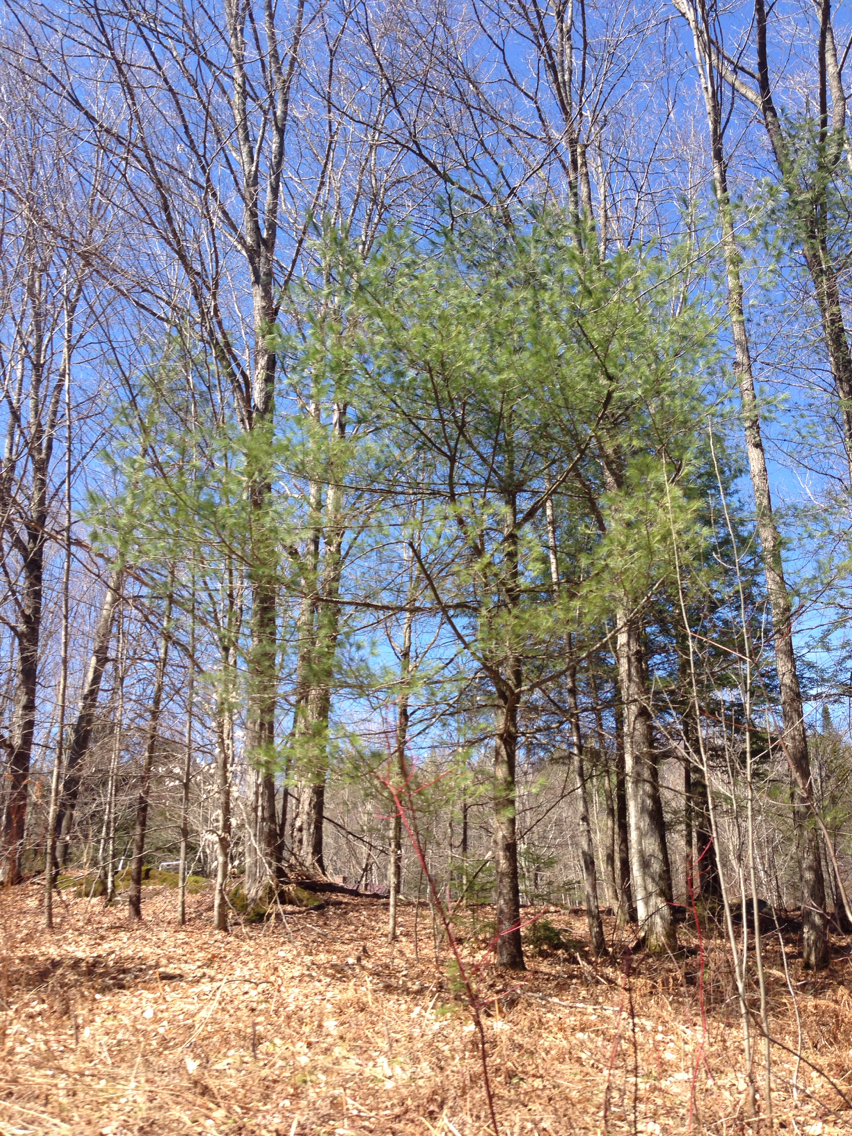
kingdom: Plantae
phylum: Tracheophyta
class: Pinopsida
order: Pinales
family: Pinaceae
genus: Pinus
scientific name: Pinus strobus
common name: Weymouth pine
